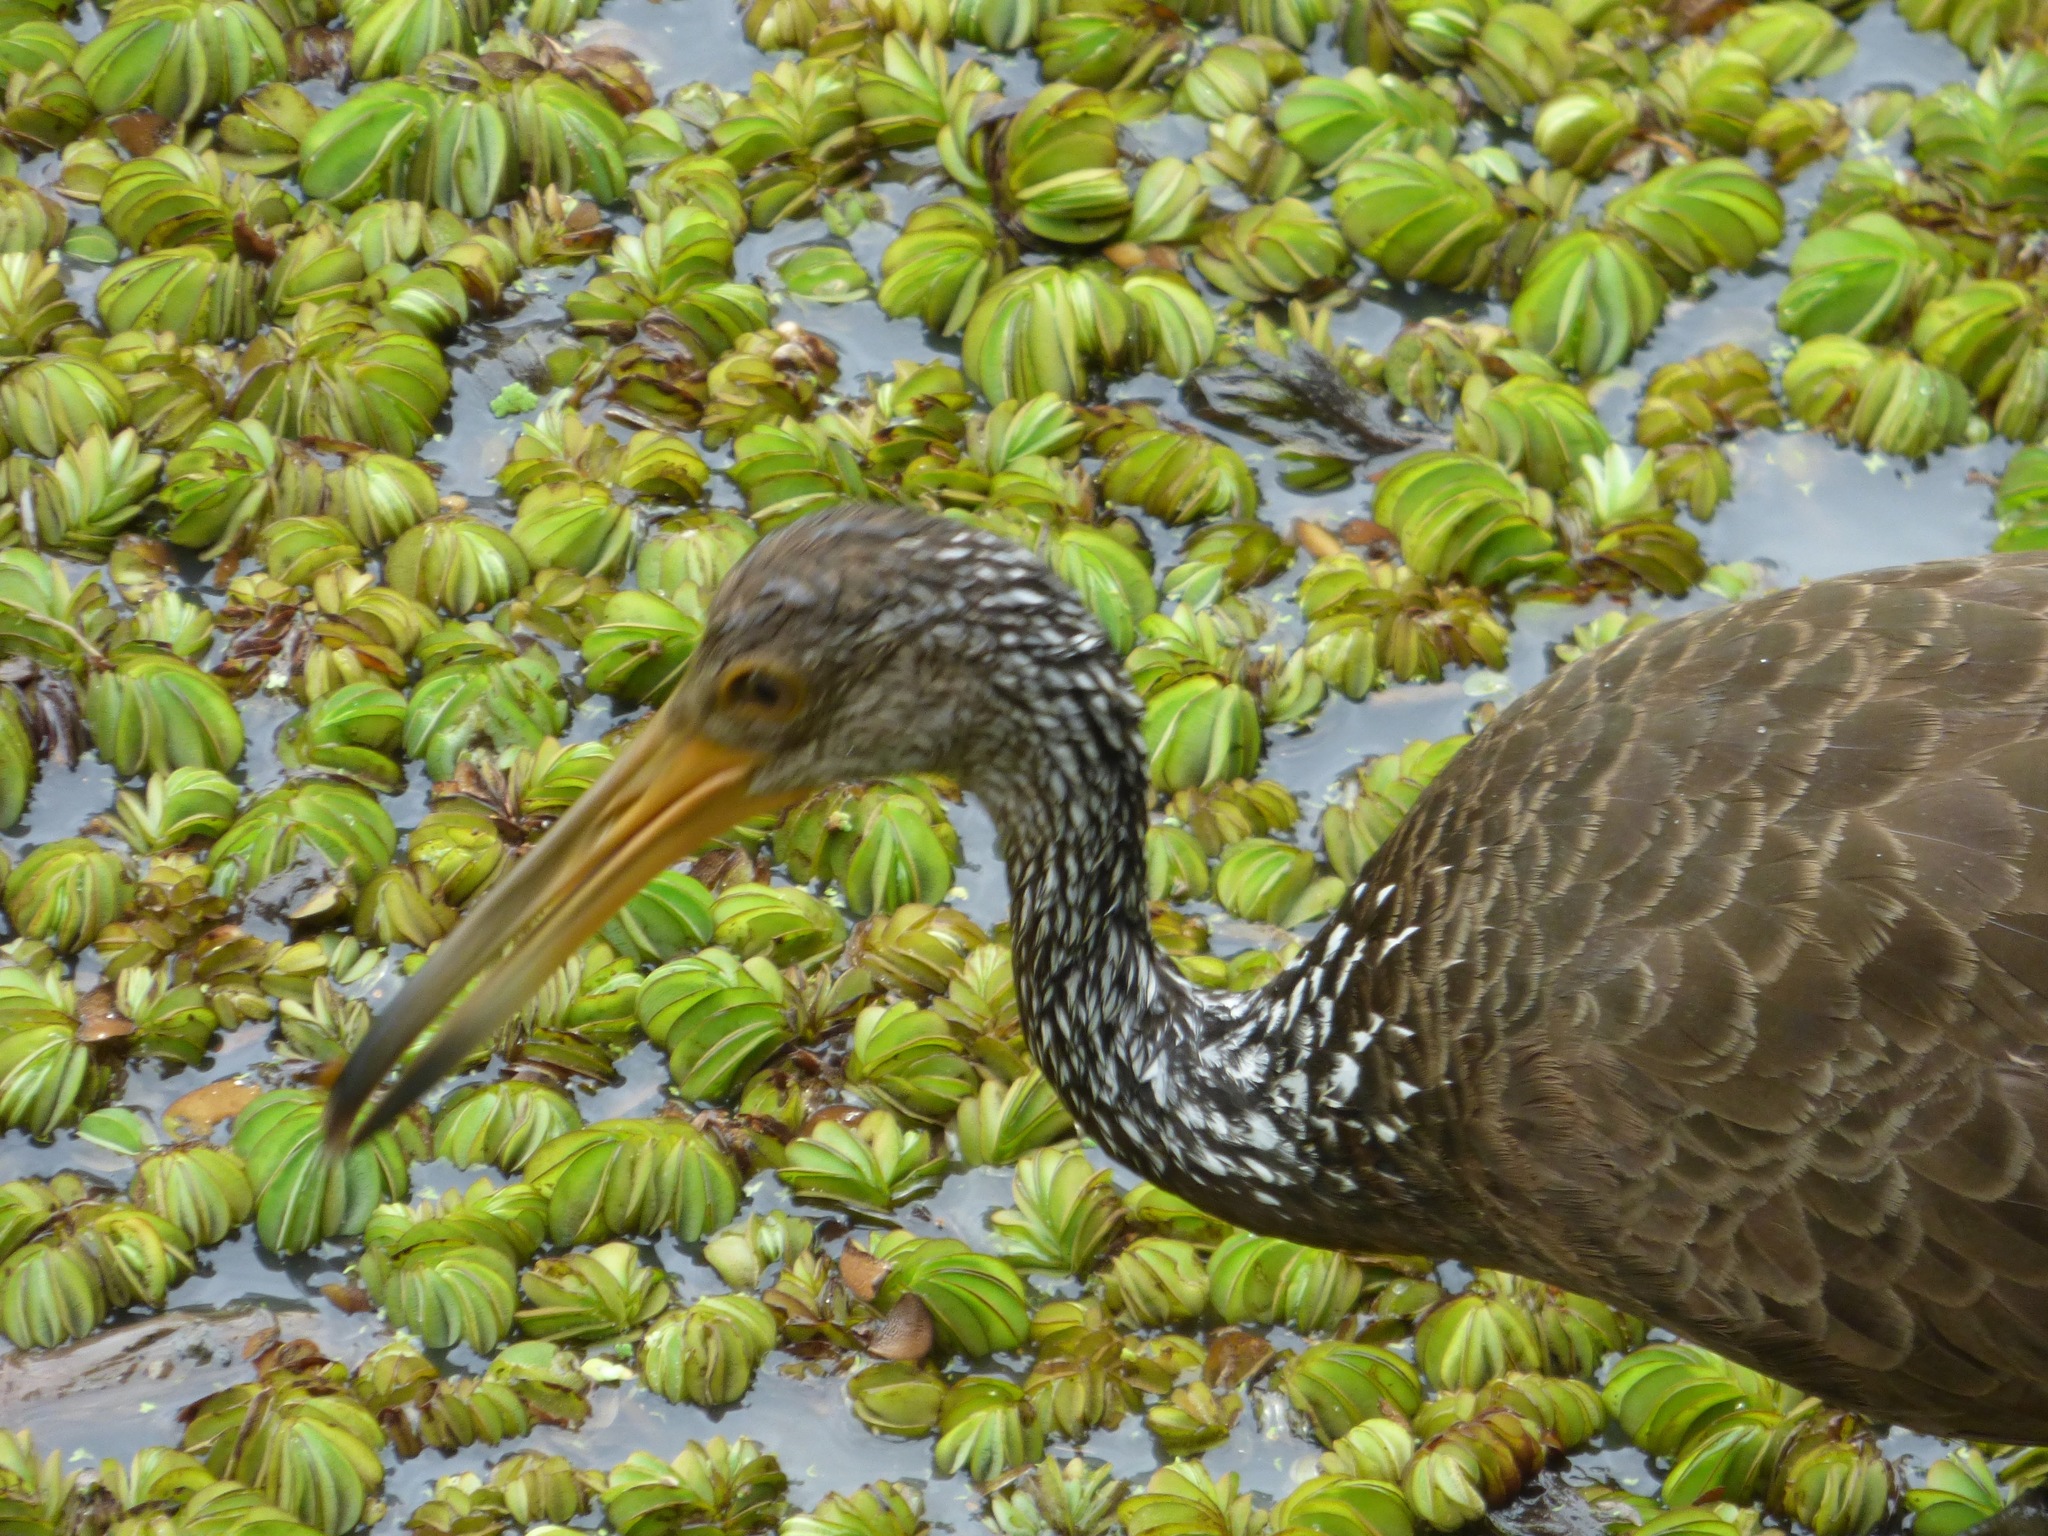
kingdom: Animalia
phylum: Chordata
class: Aves
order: Gruiformes
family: Aramidae
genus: Aramus
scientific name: Aramus guarauna
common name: Limpkin
